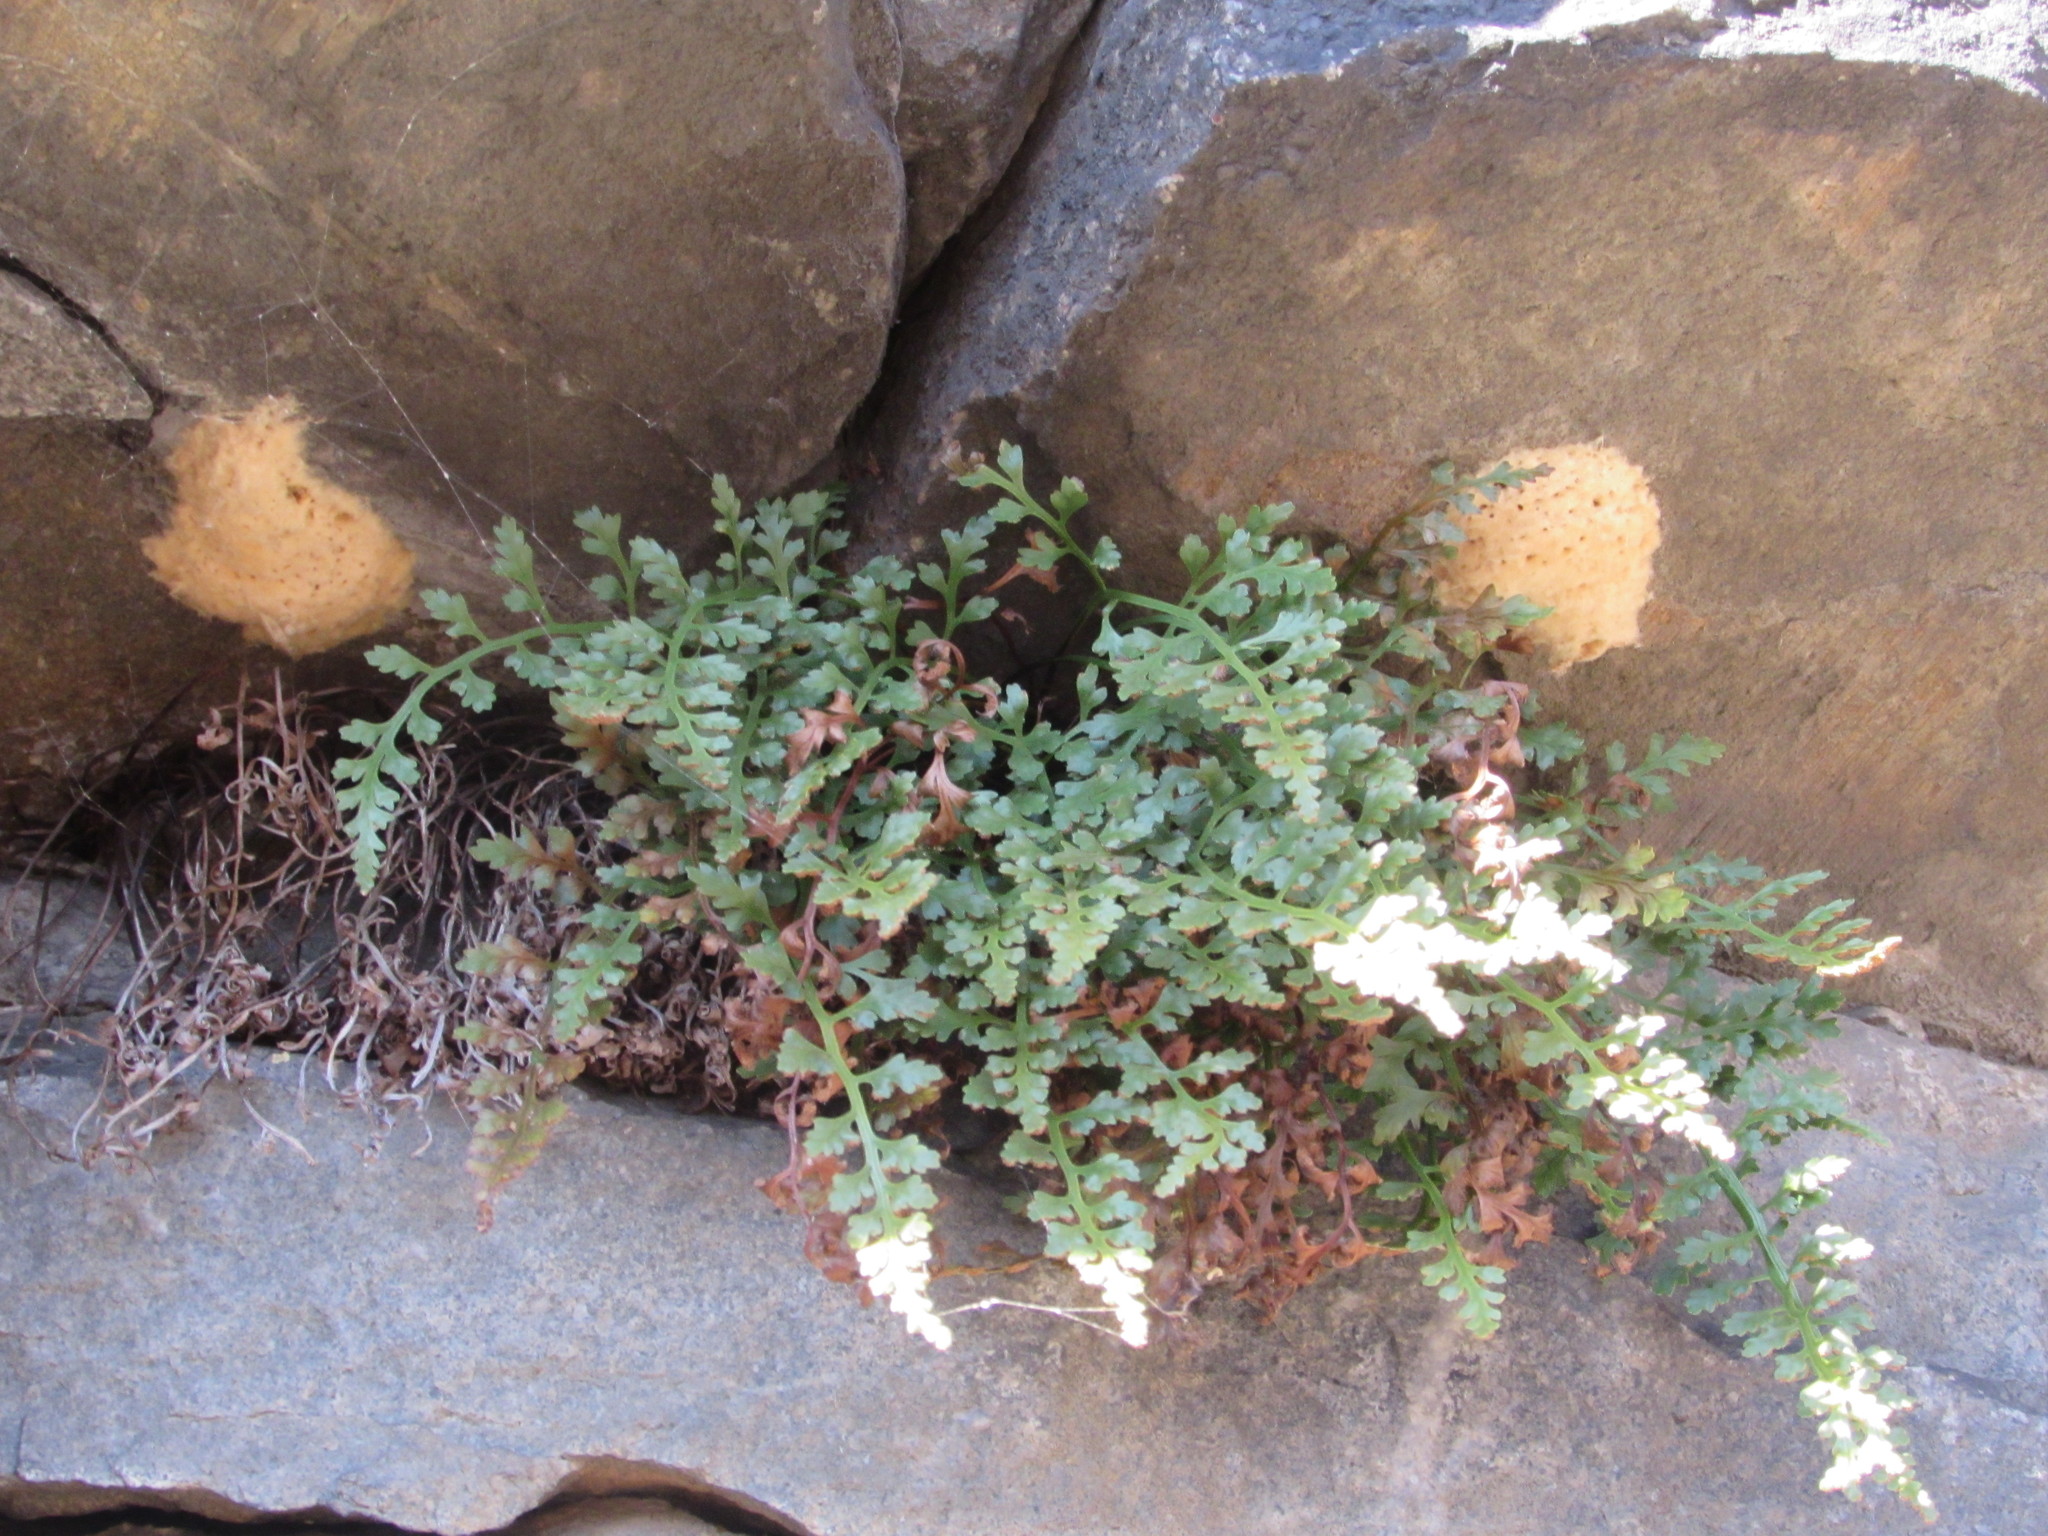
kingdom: Plantae
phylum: Tracheophyta
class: Polypodiopsida
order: Polypodiales
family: Aspleniaceae
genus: Asplenium
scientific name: Asplenium montanum
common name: Mountain spleenwort
